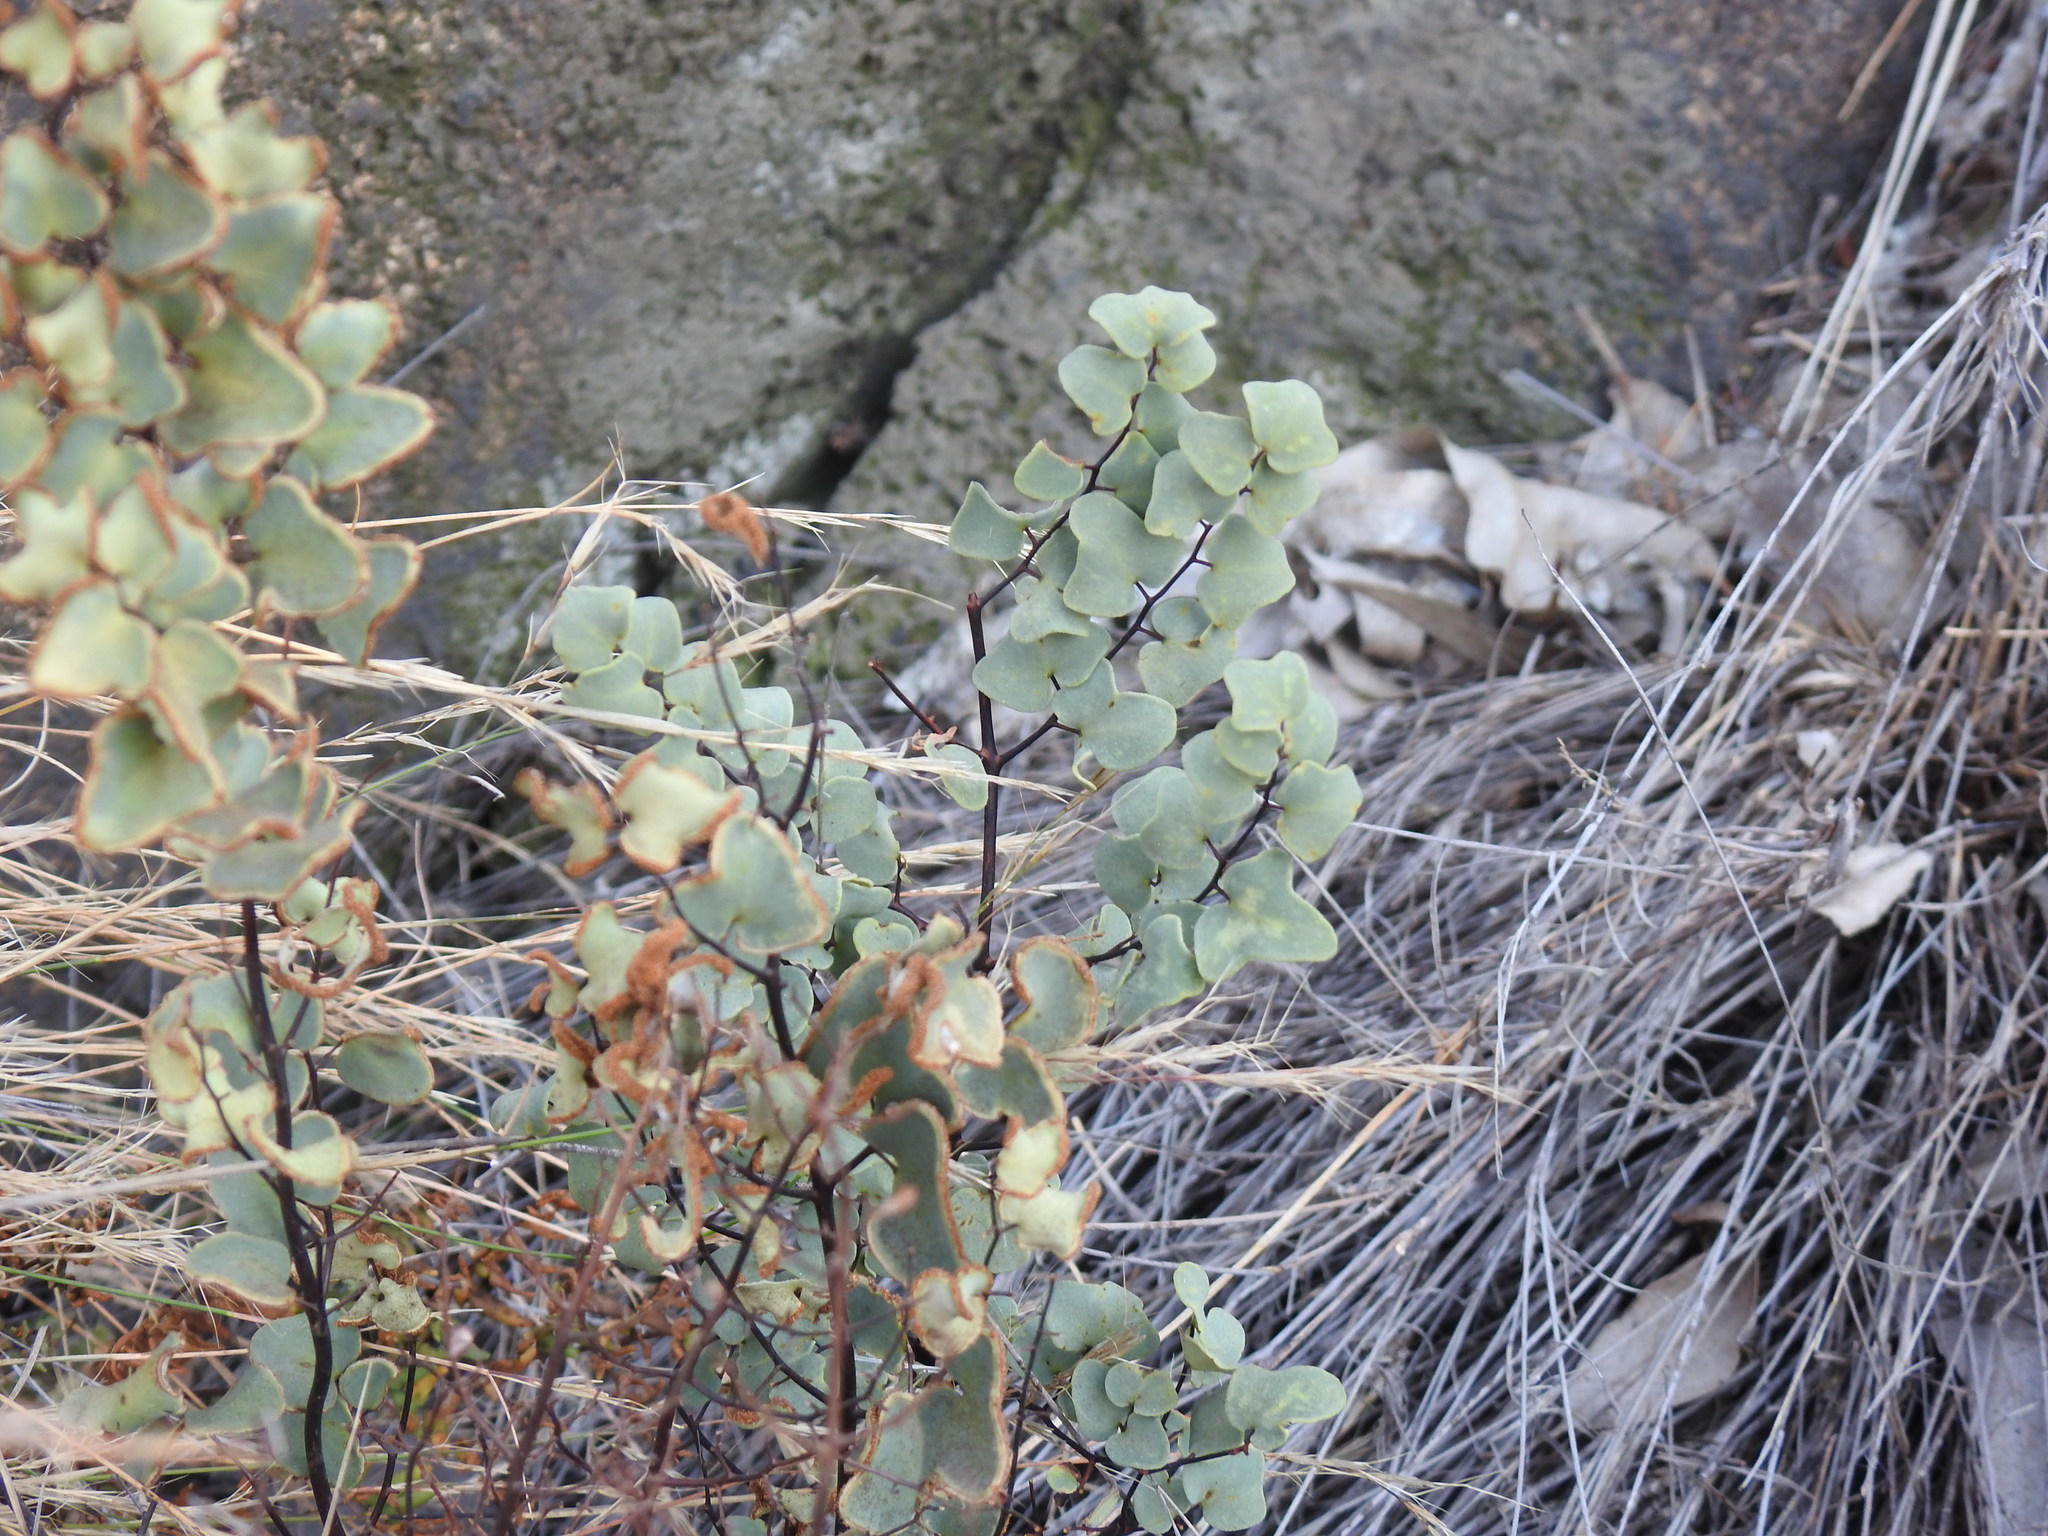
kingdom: Plantae
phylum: Tracheophyta
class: Polypodiopsida
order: Polypodiales
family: Pteridaceae
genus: Pellaea
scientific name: Pellaea calomelanos
